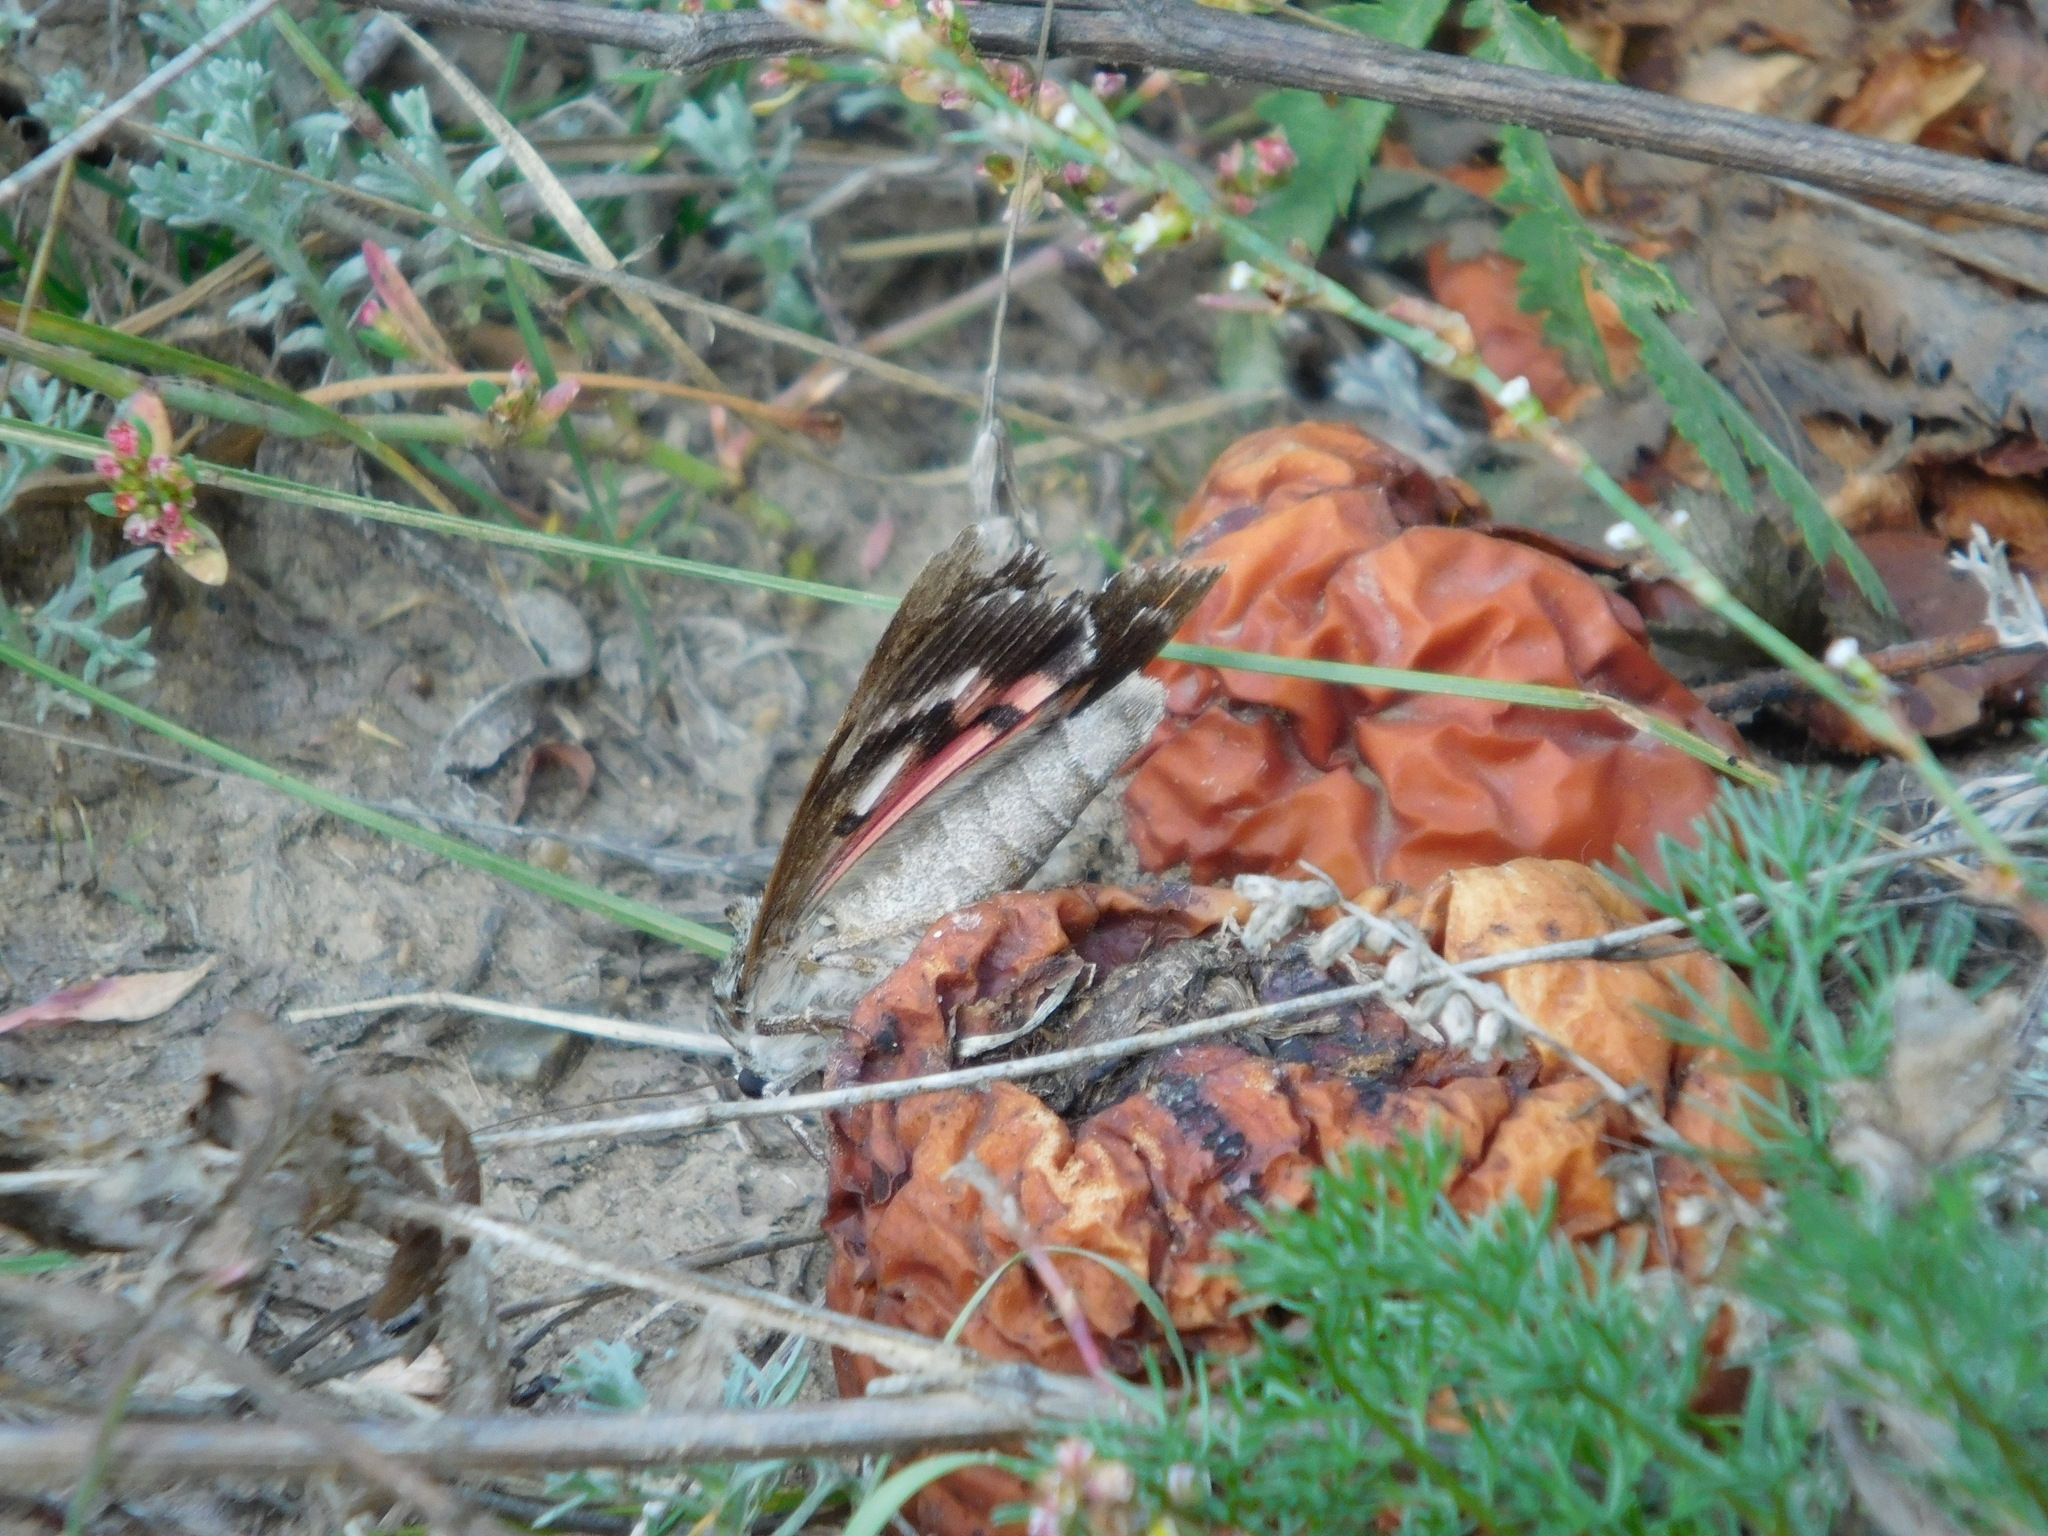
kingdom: Animalia
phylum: Arthropoda
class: Insecta
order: Lepidoptera
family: Erebidae
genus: Catocala
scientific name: Catocala sponsa
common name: Dark crimson underwing
